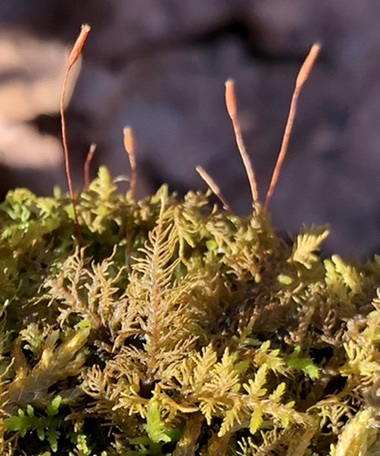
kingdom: Plantae
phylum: Bryophyta
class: Bryopsida
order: Hypnales
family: Thuidiaceae
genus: Thuidium
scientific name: Thuidium delicatulum
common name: Delicate fern moss
